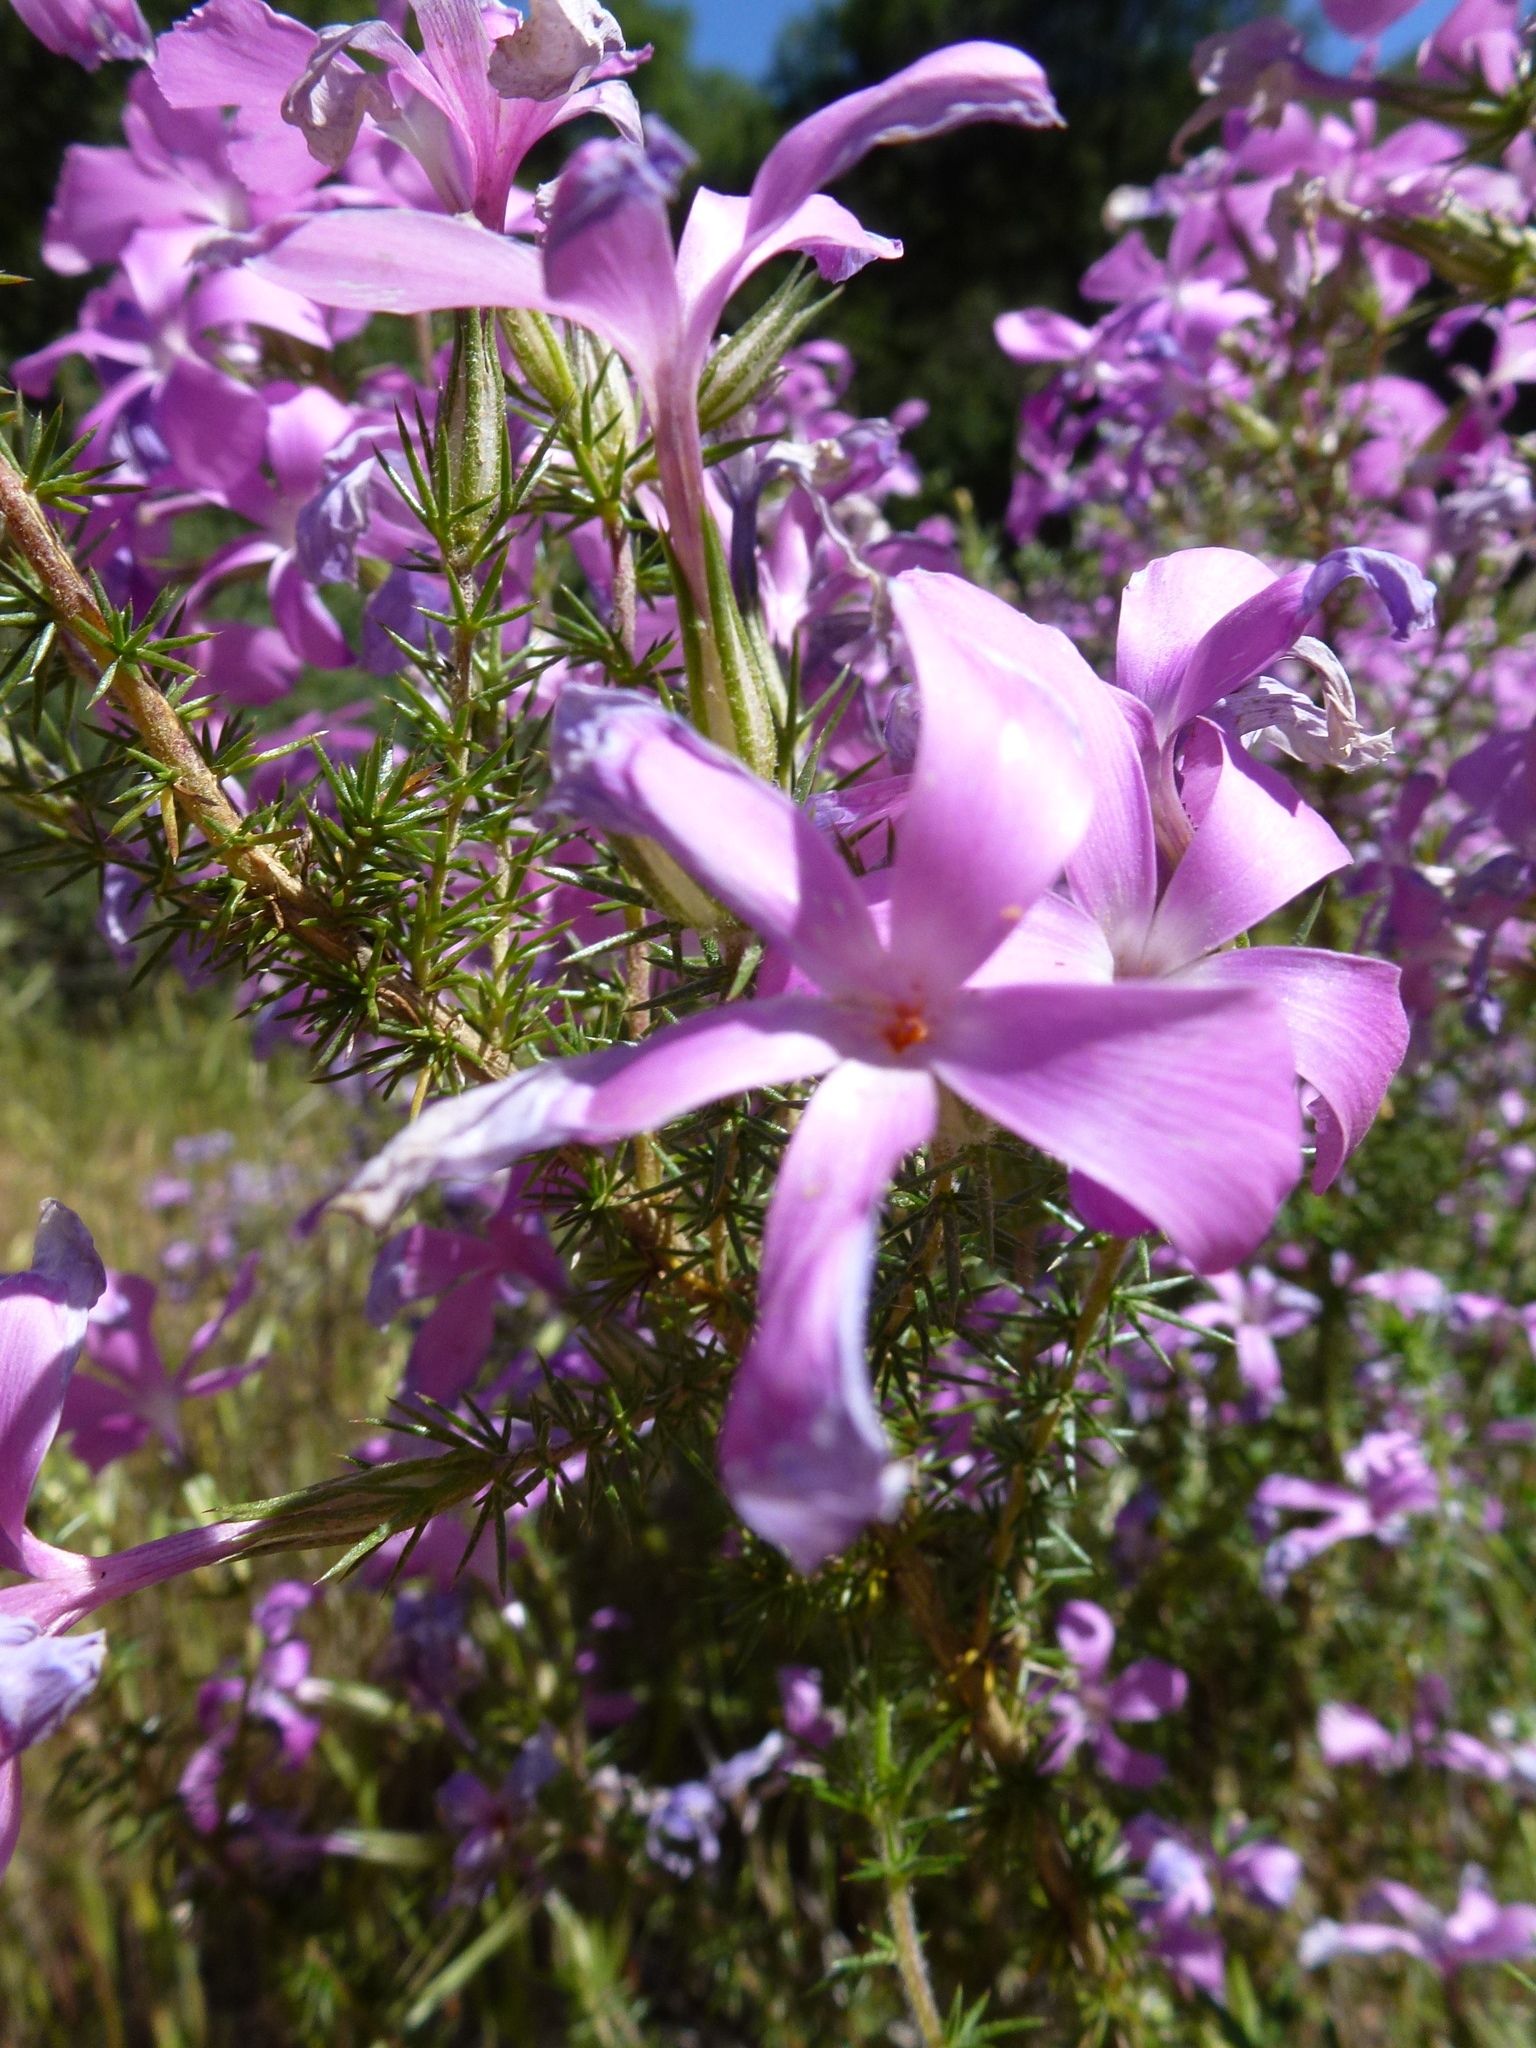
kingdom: Plantae
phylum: Tracheophyta
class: Magnoliopsida
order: Ericales
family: Polemoniaceae
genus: Linanthus
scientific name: Linanthus californicus
